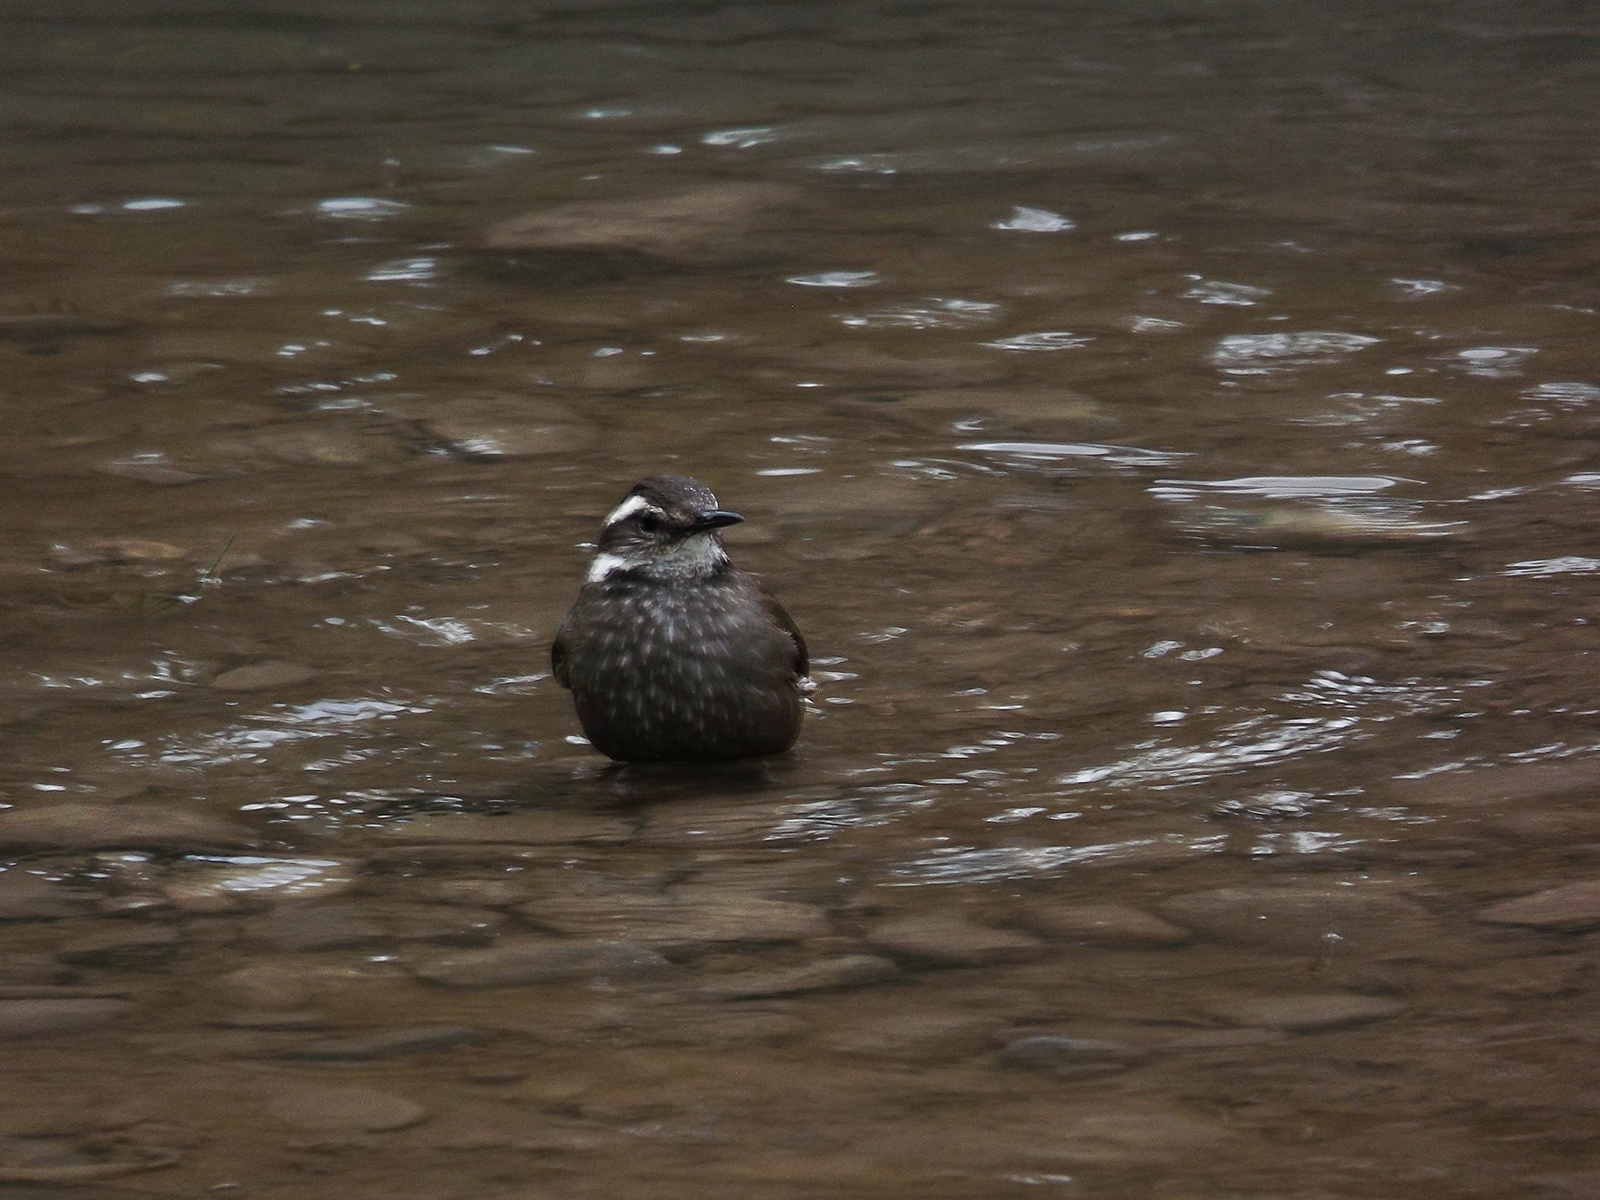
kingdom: Animalia
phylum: Chordata
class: Aves
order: Passeriformes
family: Furnariidae
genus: Cinclodes
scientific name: Cinclodes patagonicus
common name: Dark-bellied cinclodes
